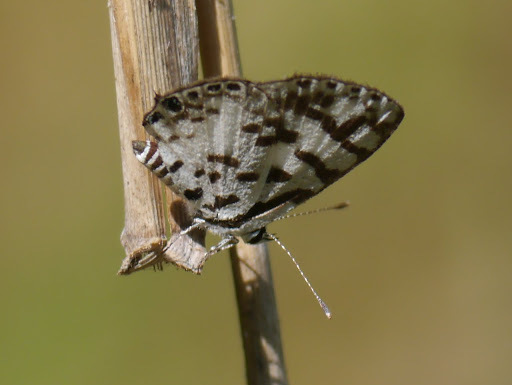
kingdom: Animalia
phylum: Arthropoda
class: Insecta
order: Lepidoptera
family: Lycaenidae
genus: Castalius
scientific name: Castalius melaena
